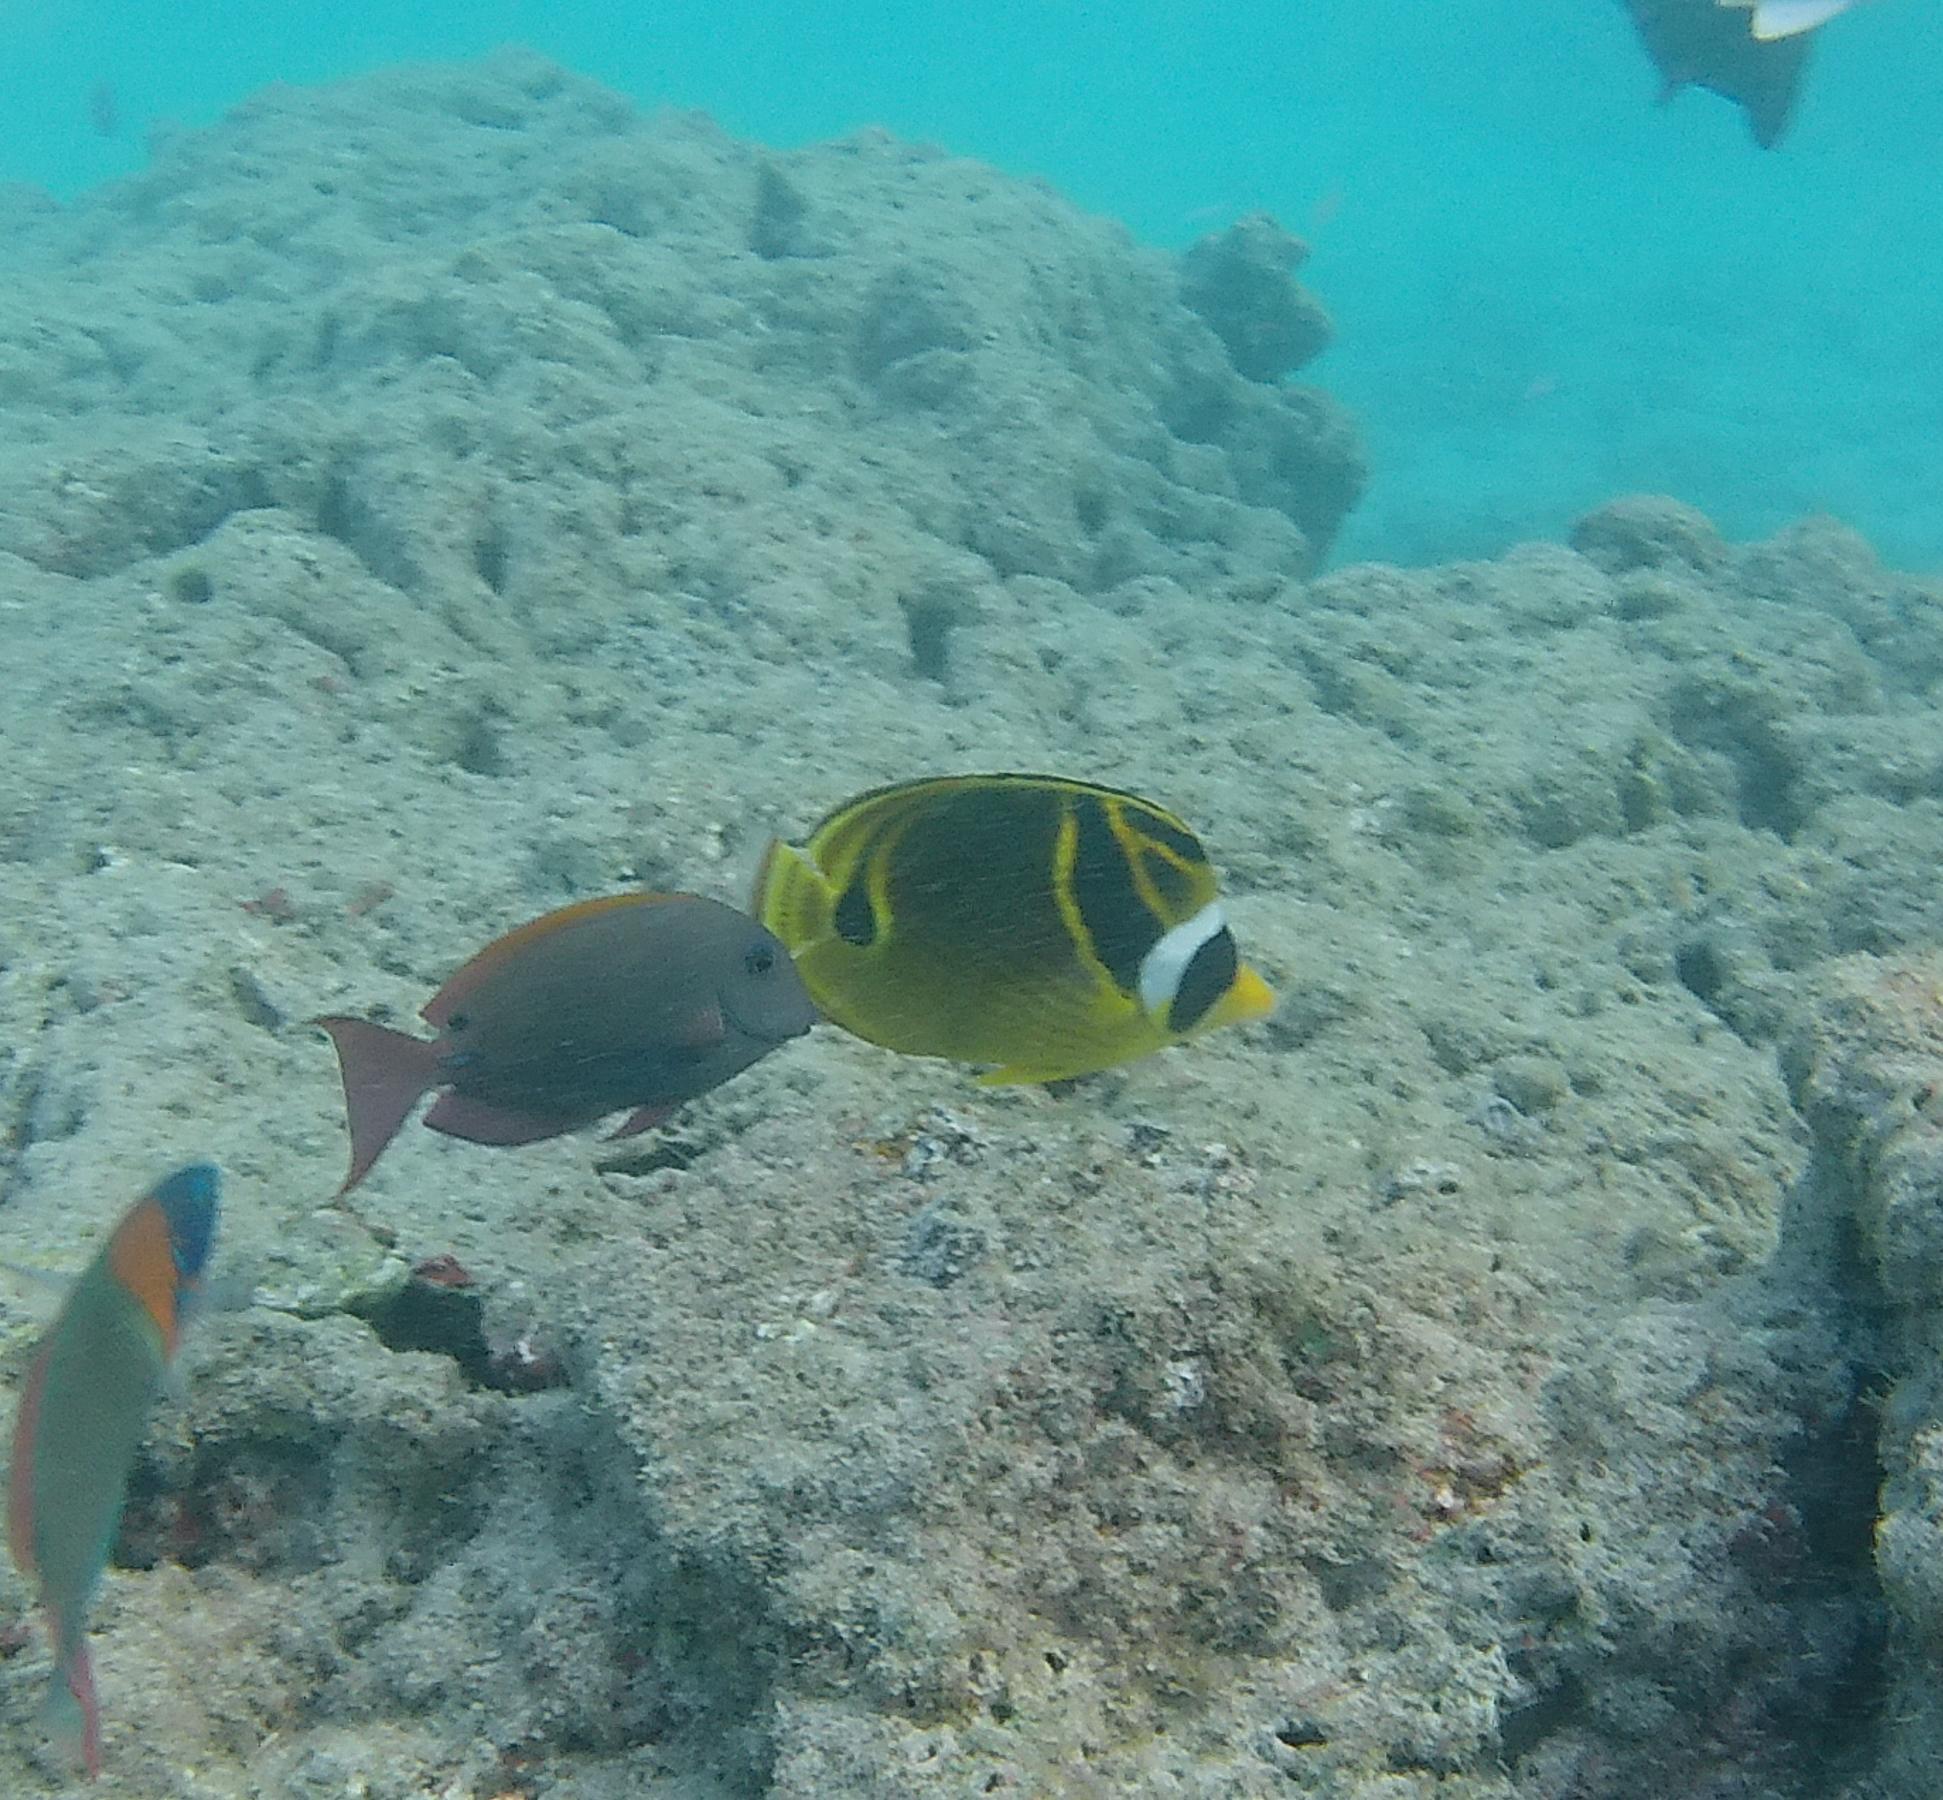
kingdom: Animalia
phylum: Chordata
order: Perciformes
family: Chaetodontidae
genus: Chaetodon
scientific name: Chaetodon lunula
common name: Raccoon butterflyfish
